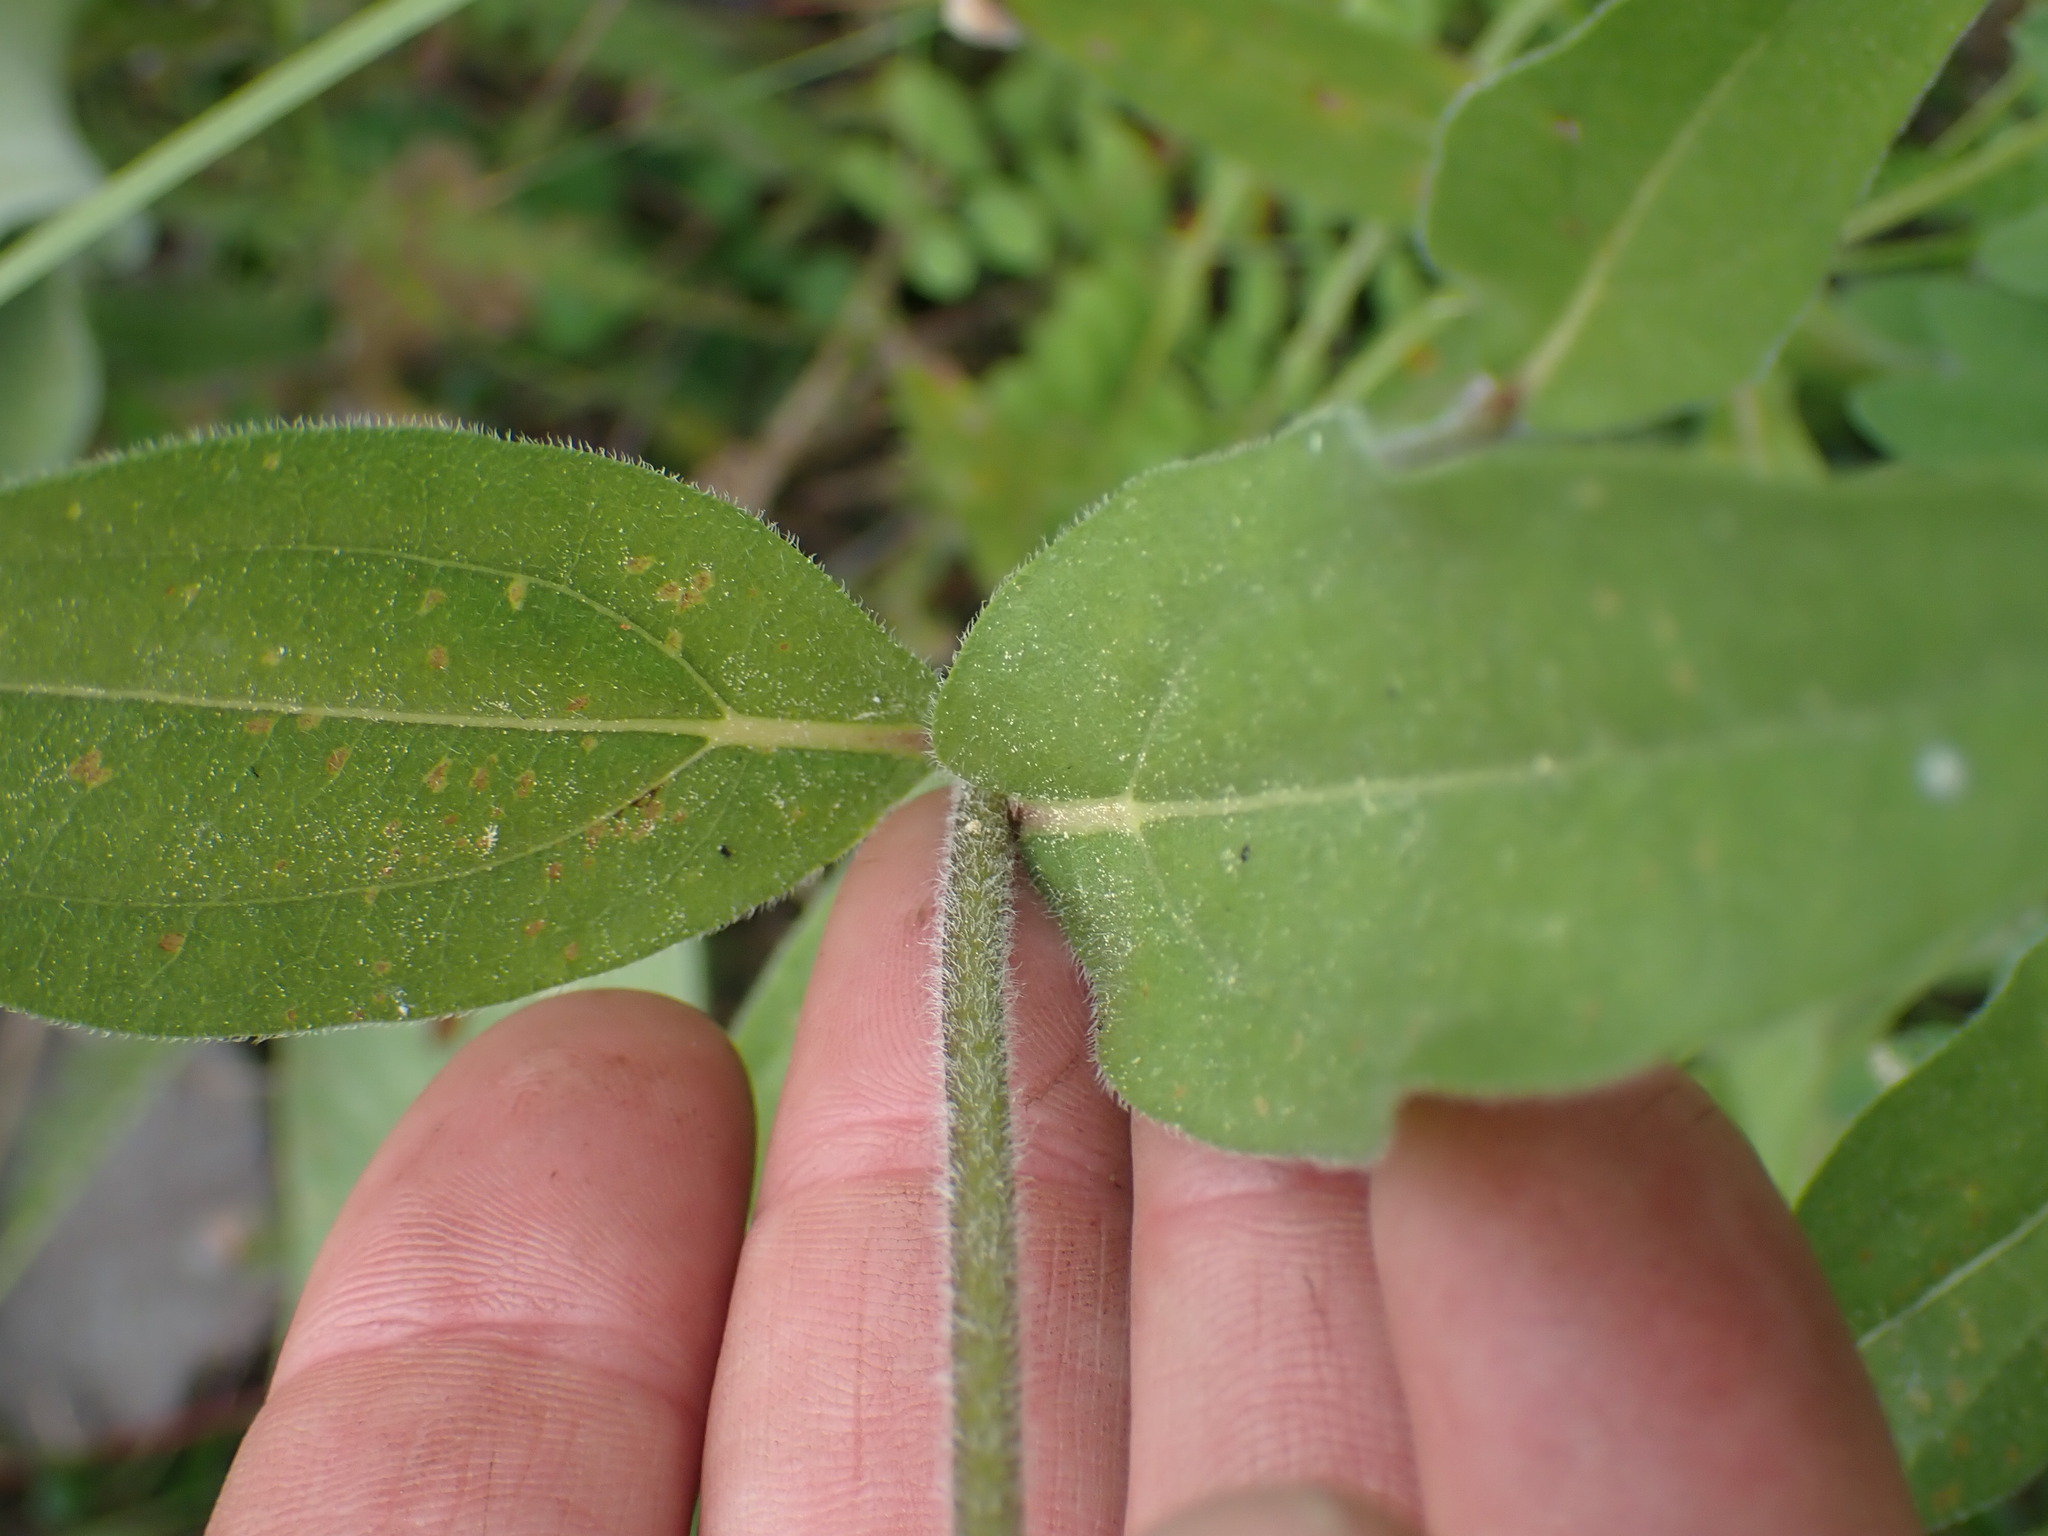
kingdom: Plantae
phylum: Tracheophyta
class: Magnoliopsida
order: Asterales
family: Asteraceae
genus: Helianthella
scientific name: Helianthella uniflora
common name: Rocky mountain dwarf sunflower
